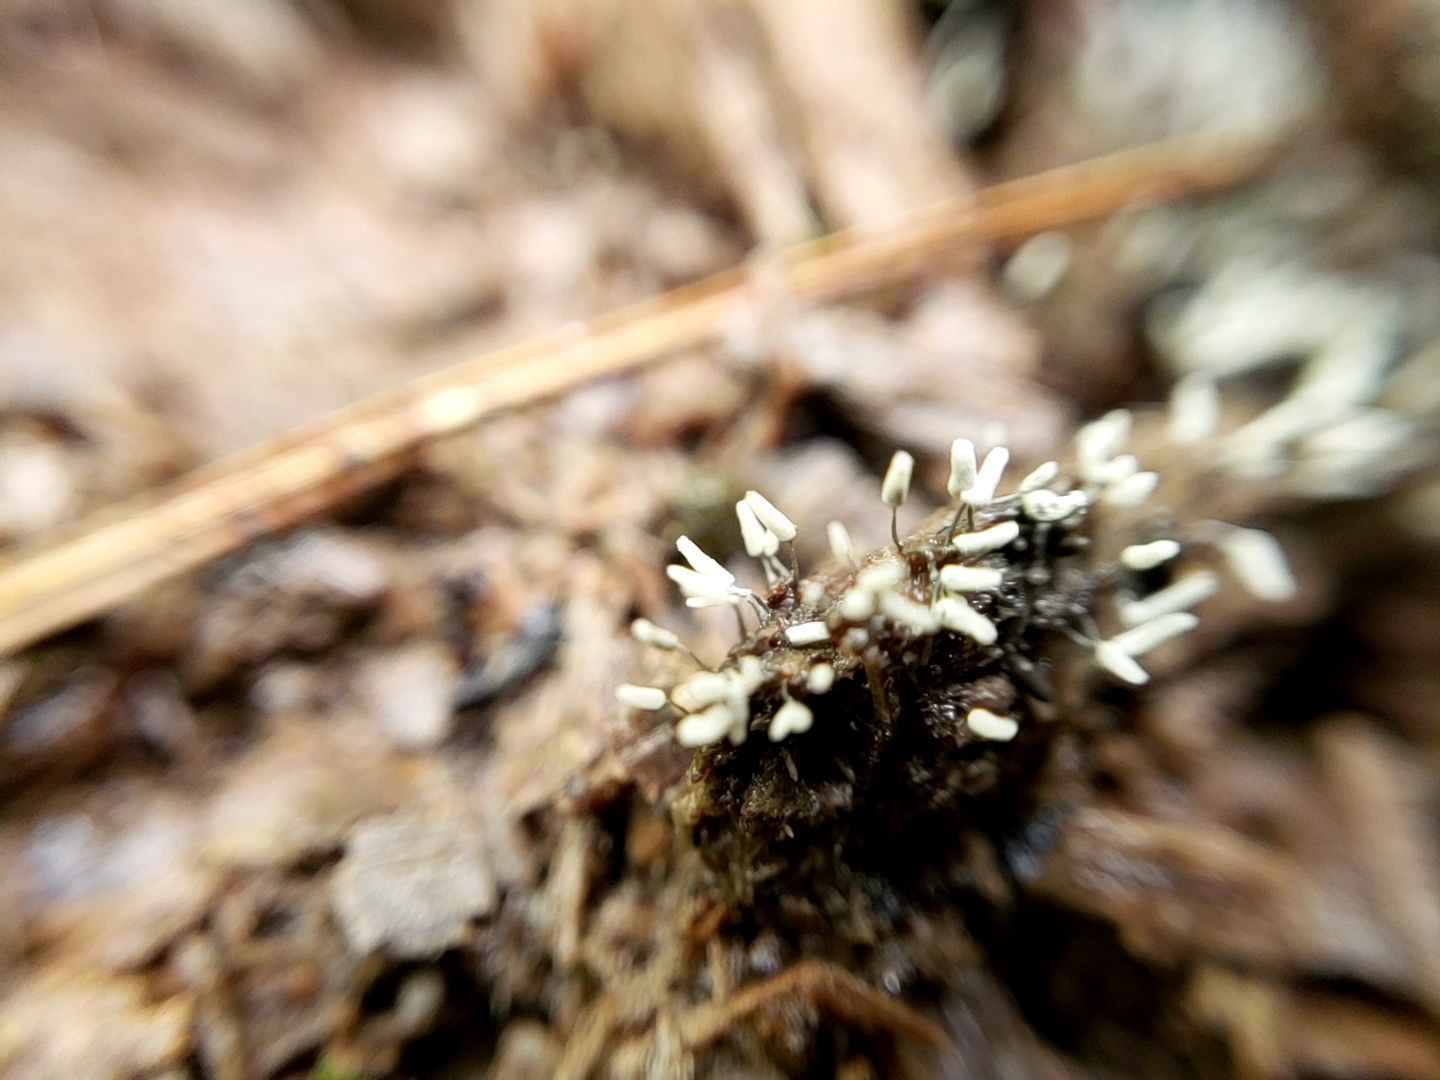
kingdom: Protozoa
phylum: Mycetozoa
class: Myxomycetes
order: Trichiales
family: Arcyriaceae
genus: Arcyria
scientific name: Arcyria cinerea
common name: White carnival candy slime mold
